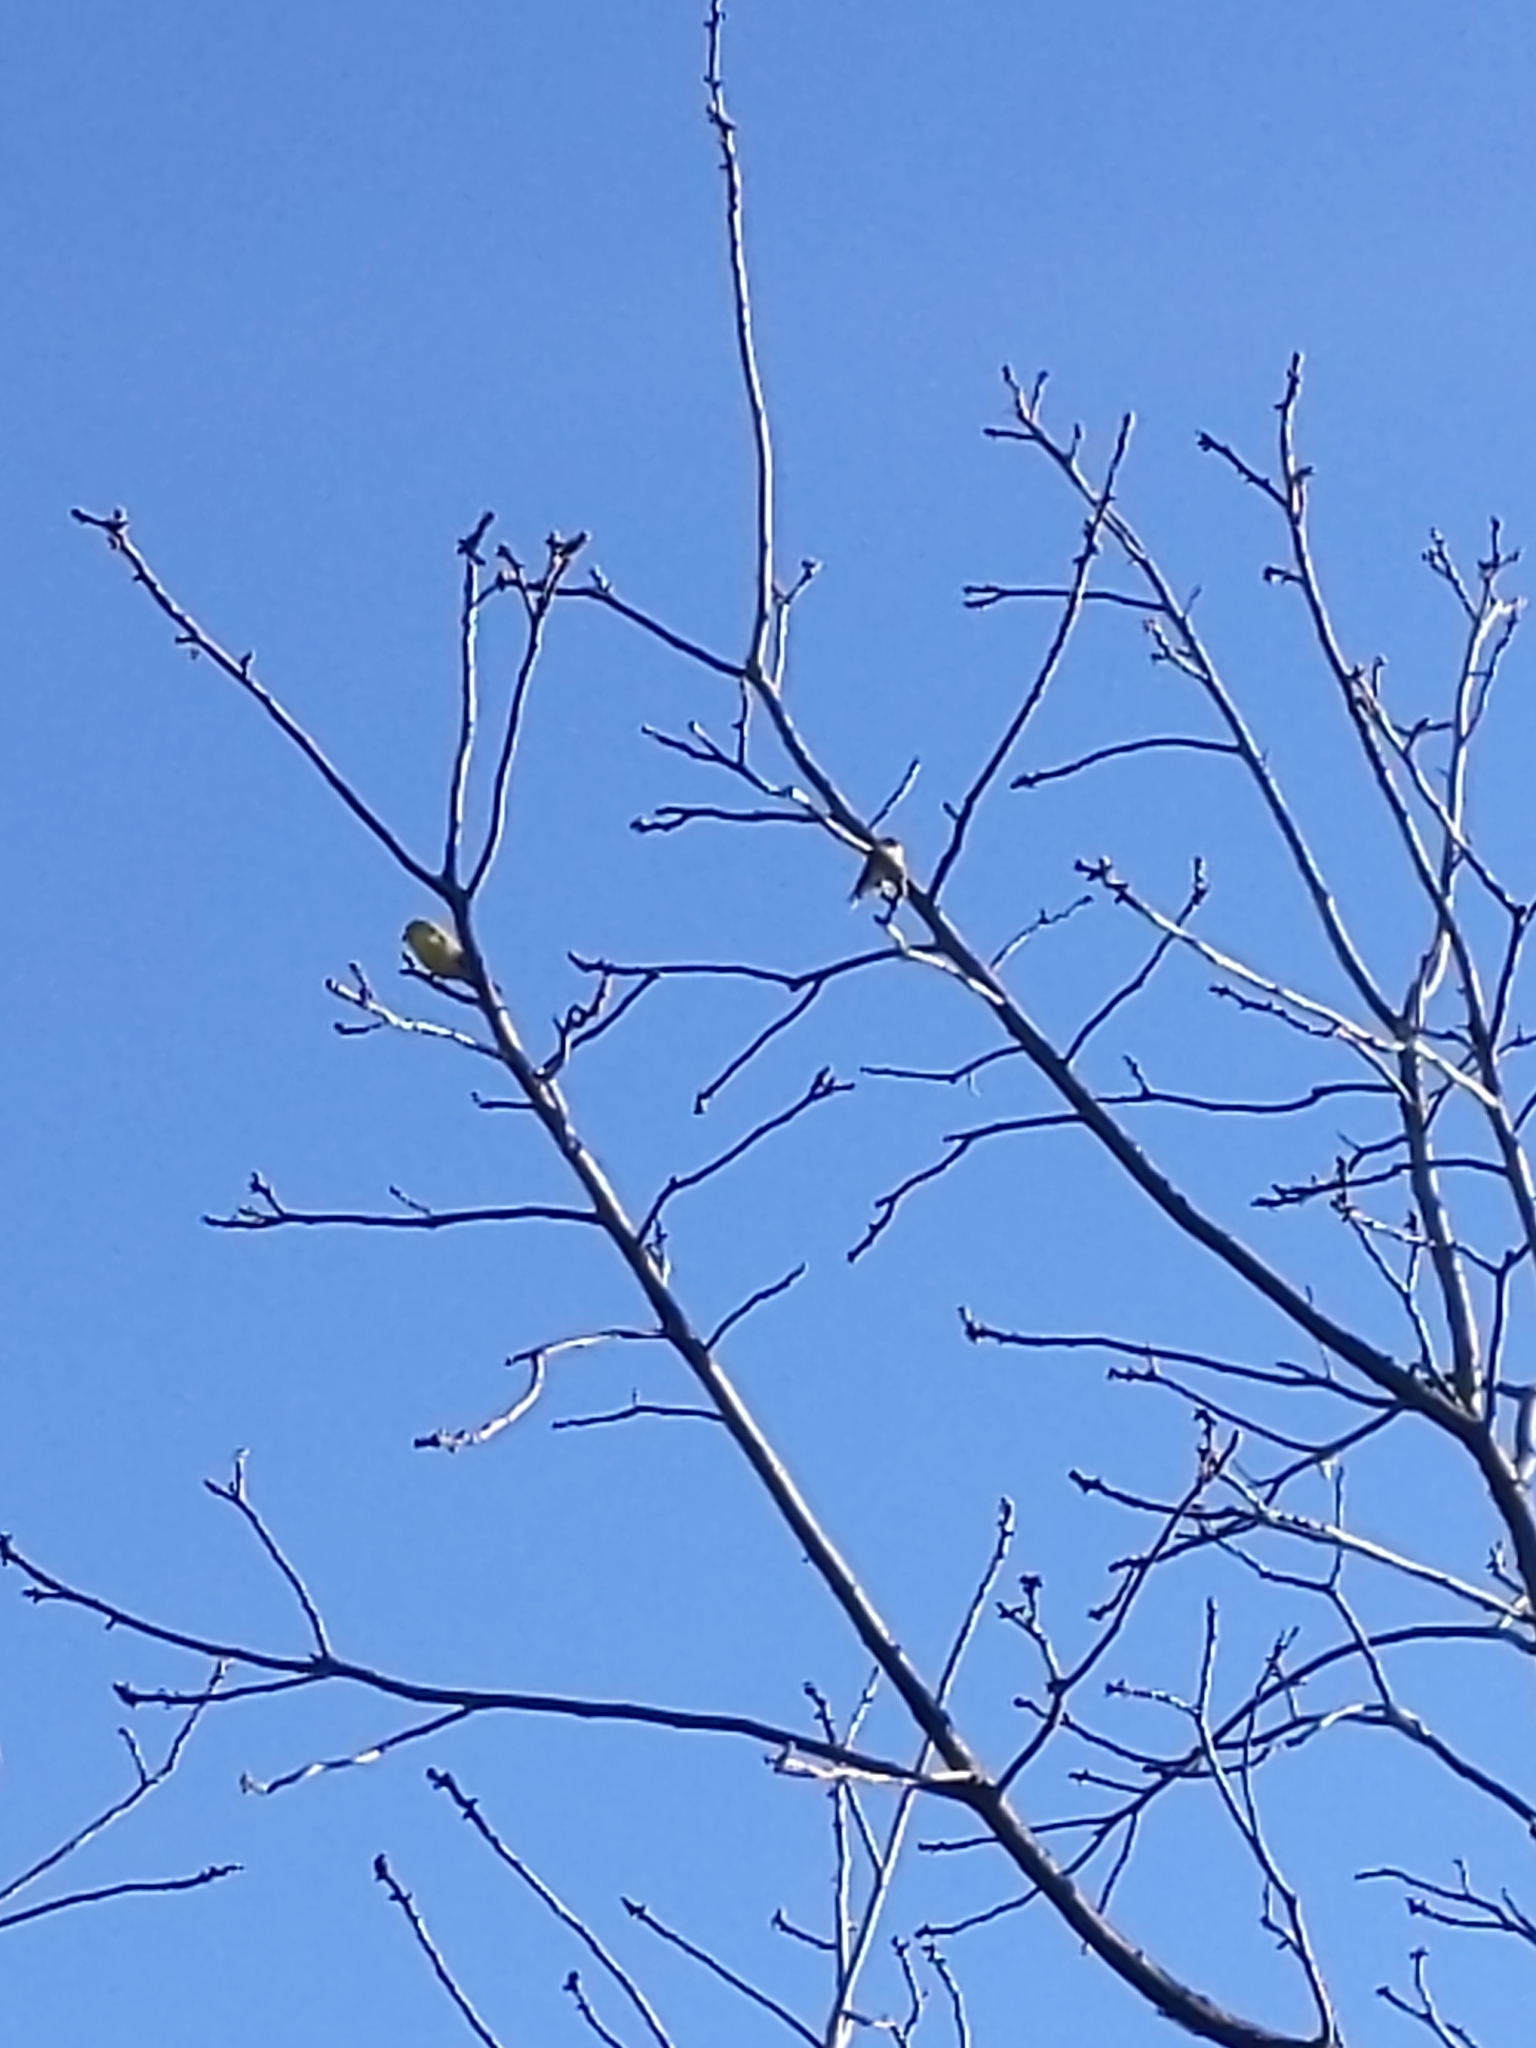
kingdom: Animalia
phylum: Chordata
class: Aves
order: Passeriformes
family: Fringillidae
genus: Spinus
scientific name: Spinus tristis
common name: American goldfinch
